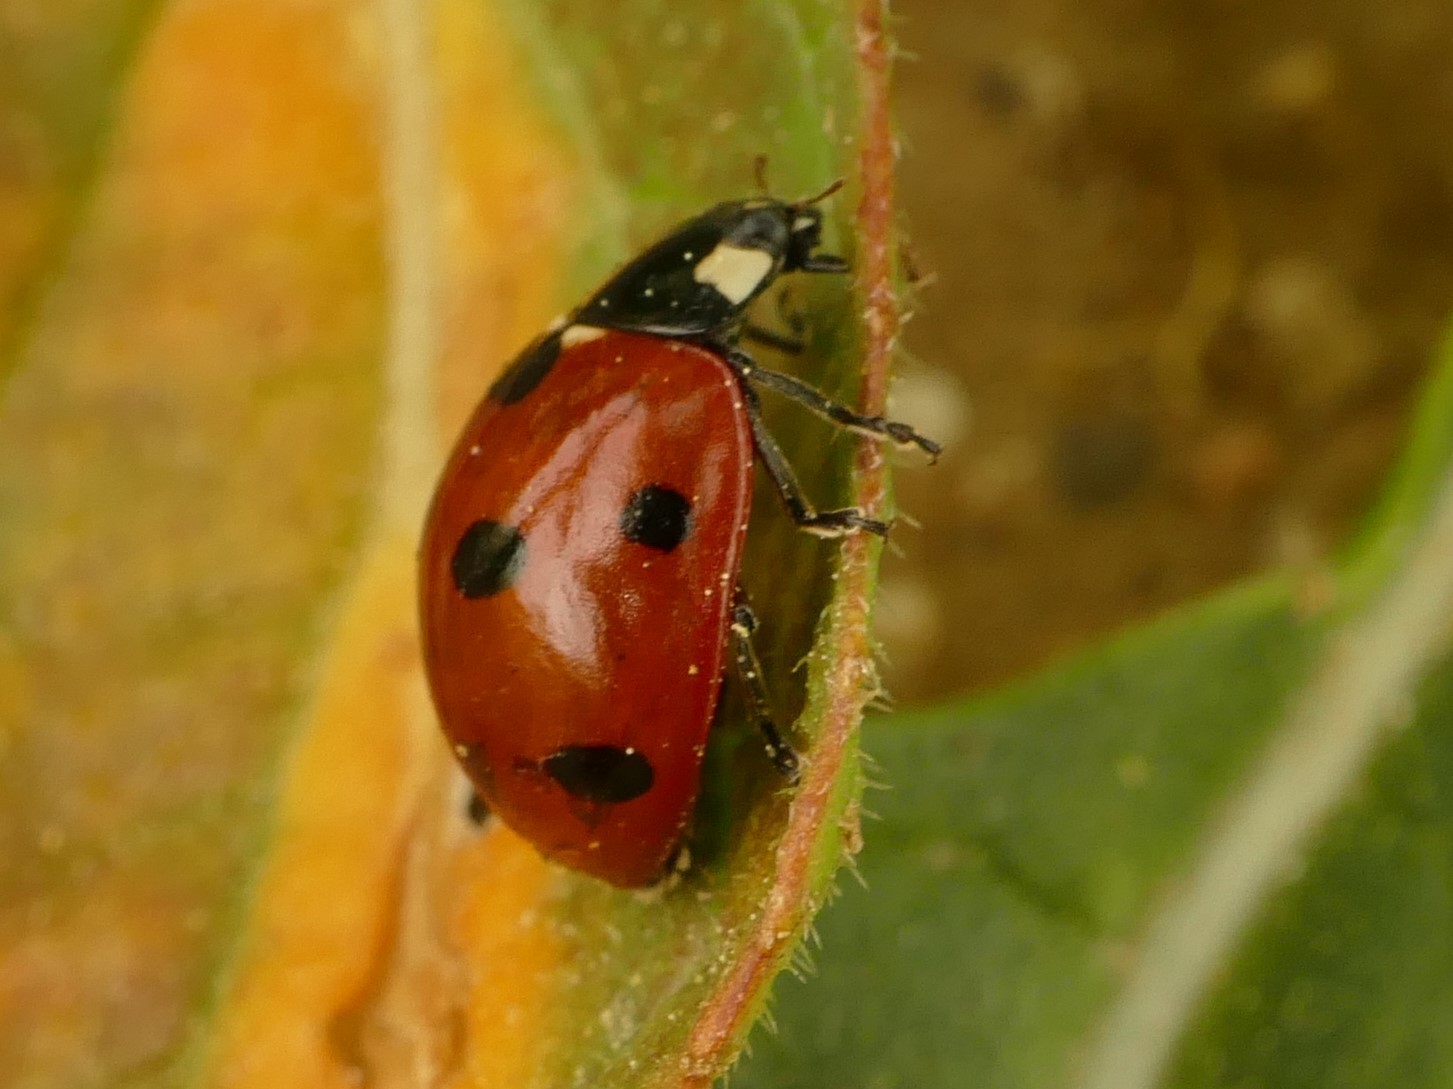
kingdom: Animalia
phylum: Arthropoda
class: Insecta
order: Coleoptera
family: Coccinellidae
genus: Coccinella
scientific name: Coccinella septempunctata
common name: Sevenspotted lady beetle
